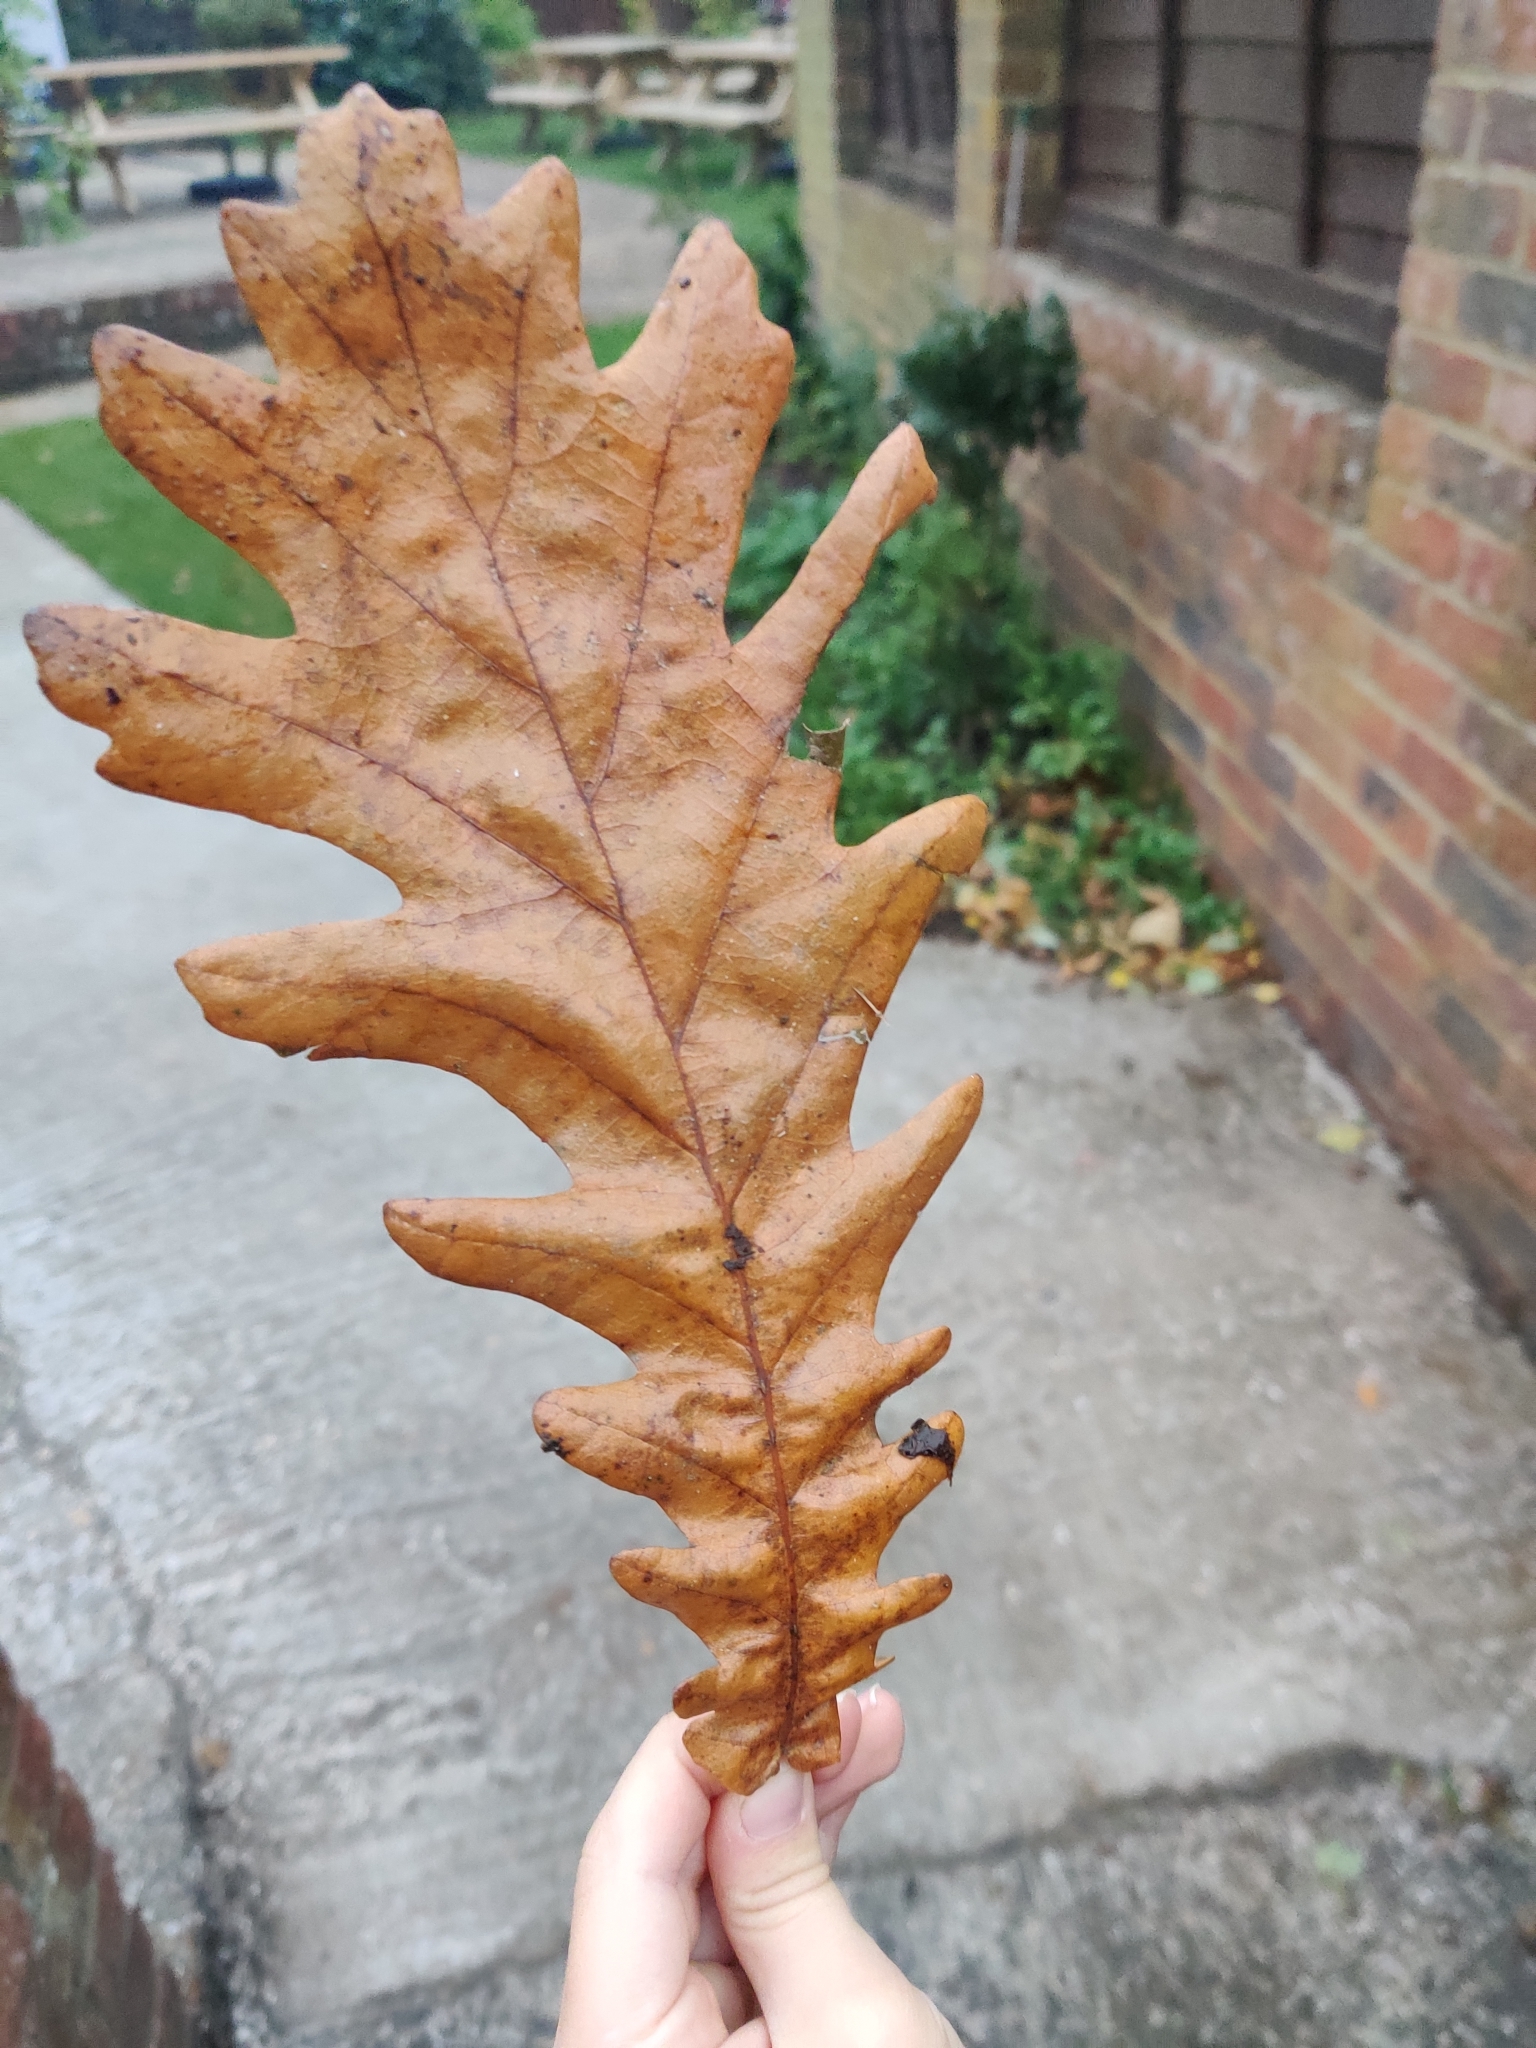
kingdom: Plantae
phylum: Tracheophyta
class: Magnoliopsida
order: Fagales
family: Fagaceae
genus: Quercus
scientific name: Quercus cerris
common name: Turkey oak
